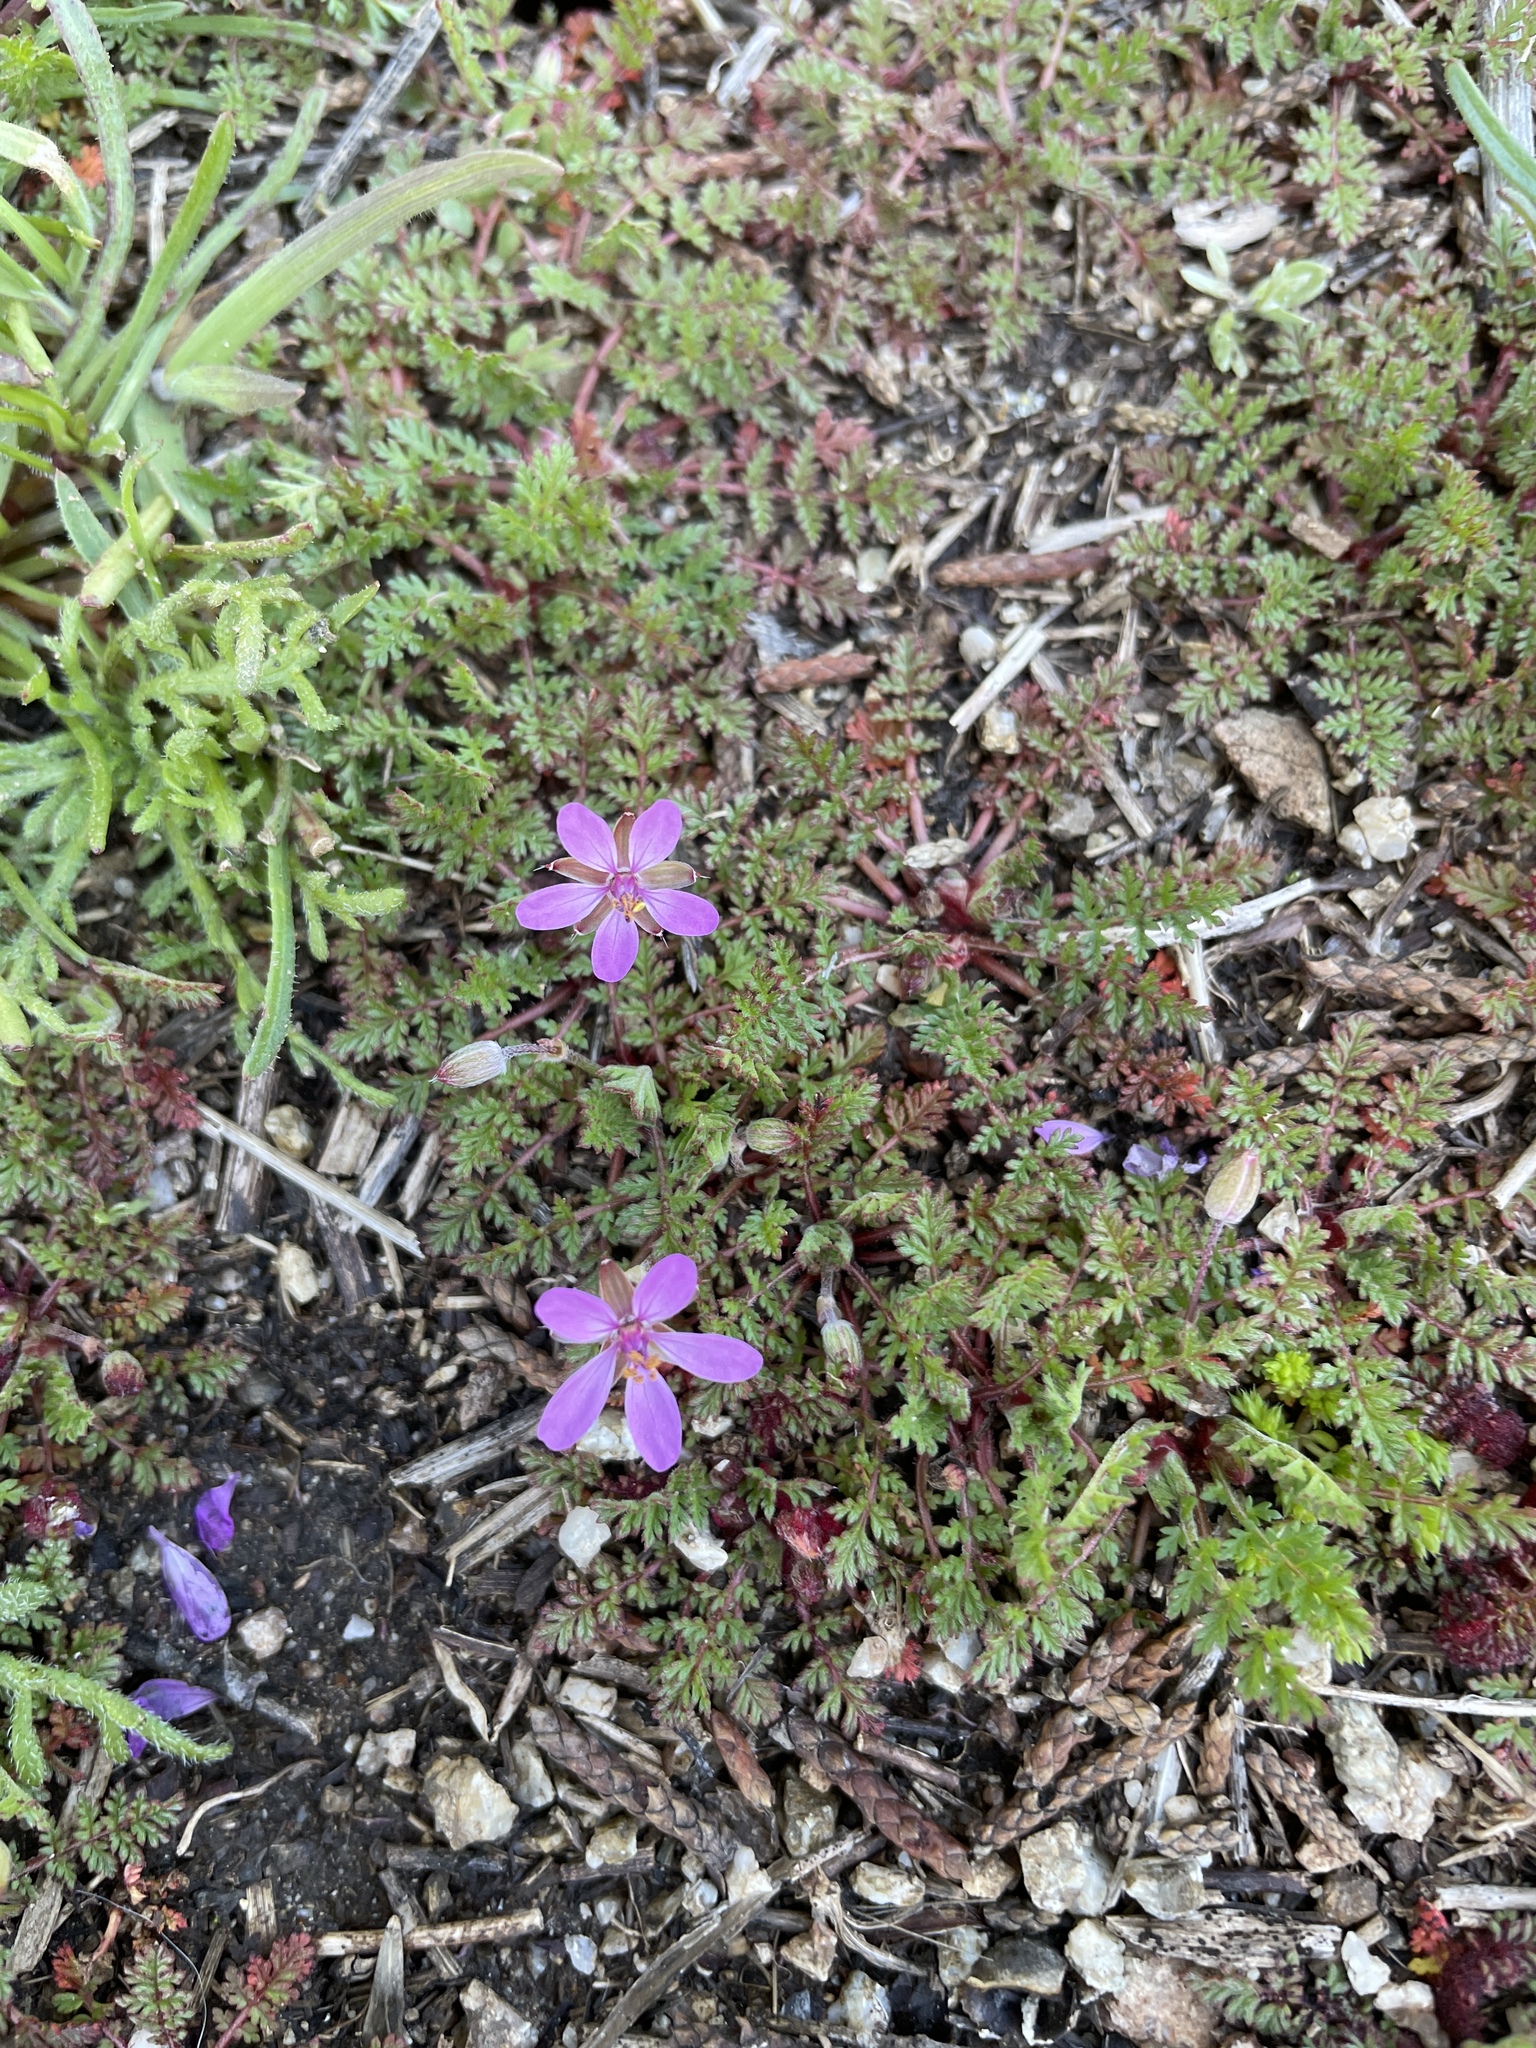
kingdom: Plantae
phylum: Tracheophyta
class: Magnoliopsida
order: Geraniales
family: Geraniaceae
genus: Erodium
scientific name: Erodium cicutarium
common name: Common stork's-bill
